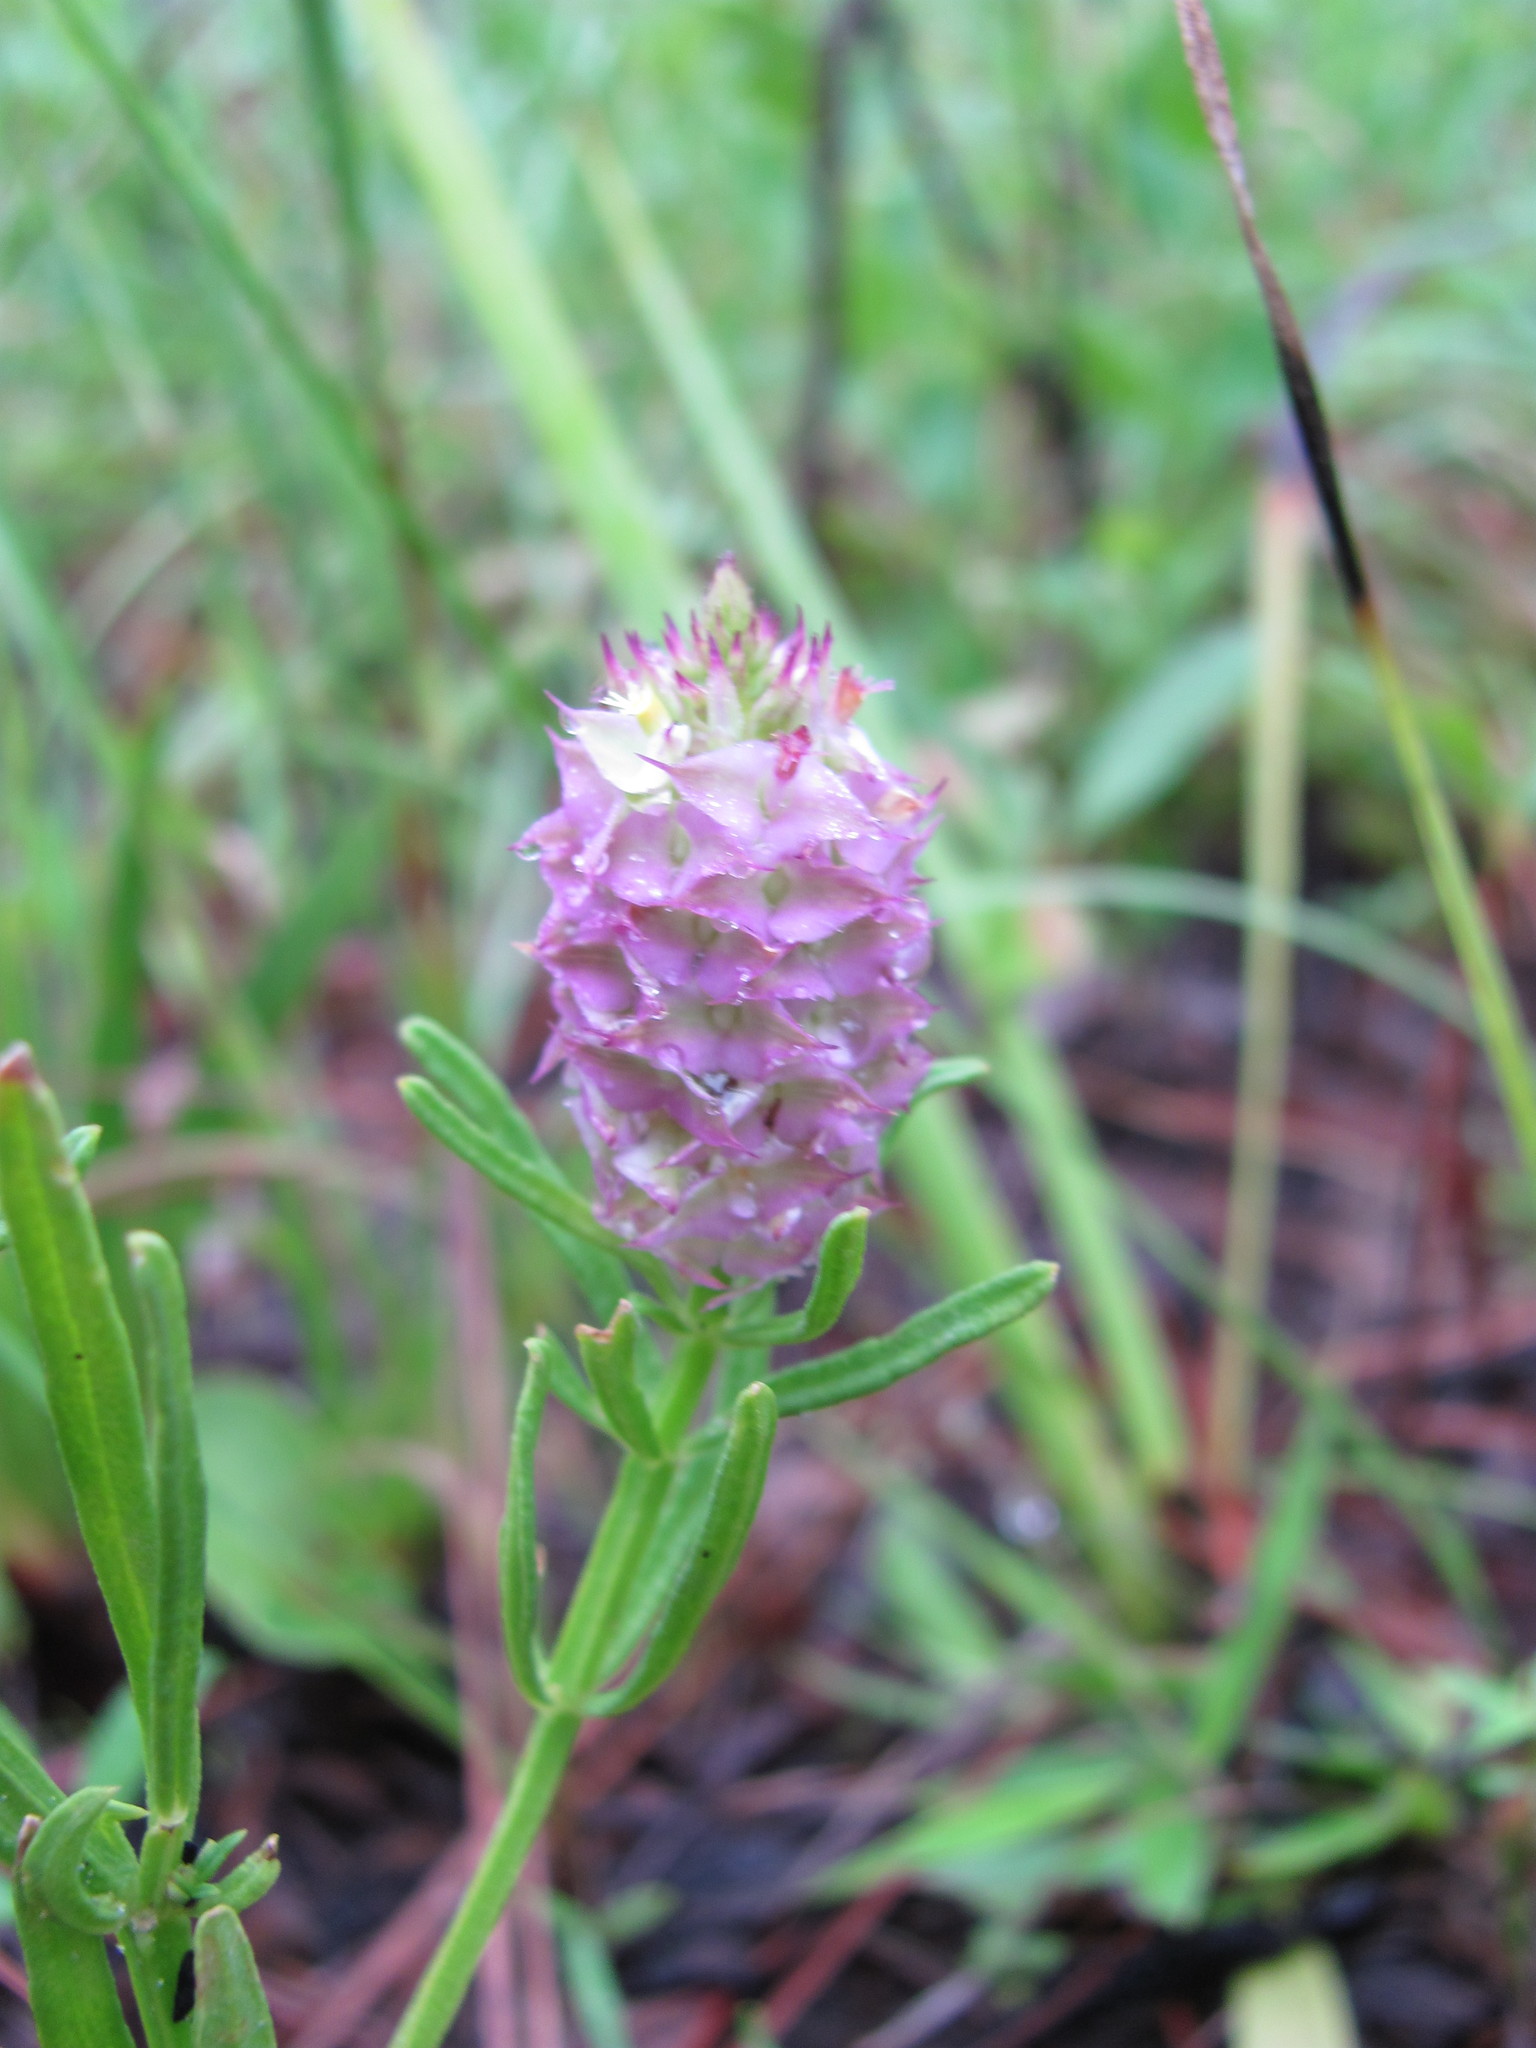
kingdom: Plantae
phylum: Tracheophyta
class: Magnoliopsida
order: Fabales
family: Polygalaceae
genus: Polygala
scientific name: Polygala cruciata
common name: Drumheads
